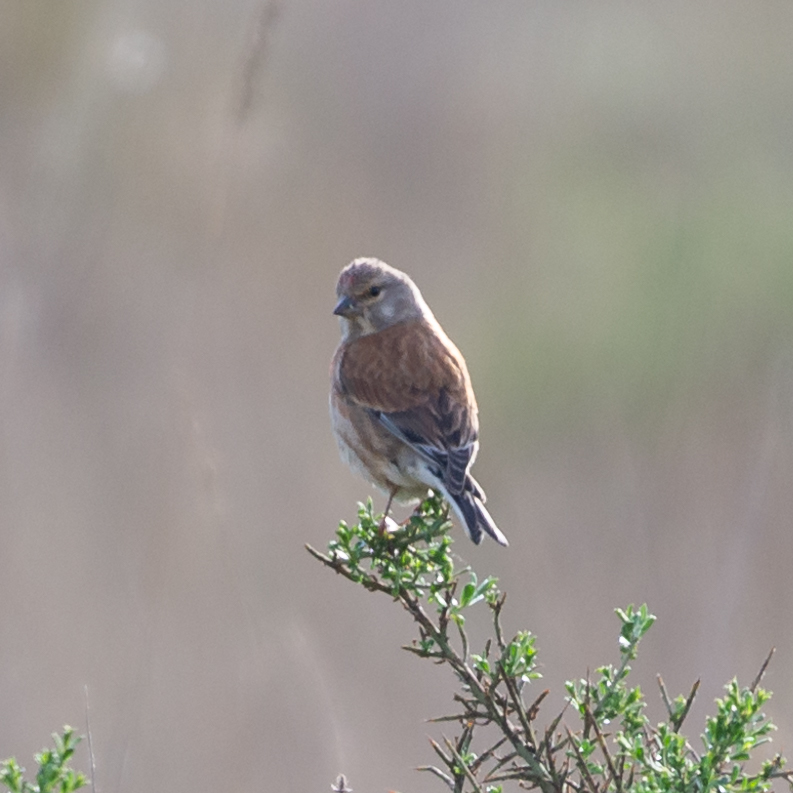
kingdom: Animalia
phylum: Chordata
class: Aves
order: Passeriformes
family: Fringillidae
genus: Linaria
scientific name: Linaria cannabina
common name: Common linnet
